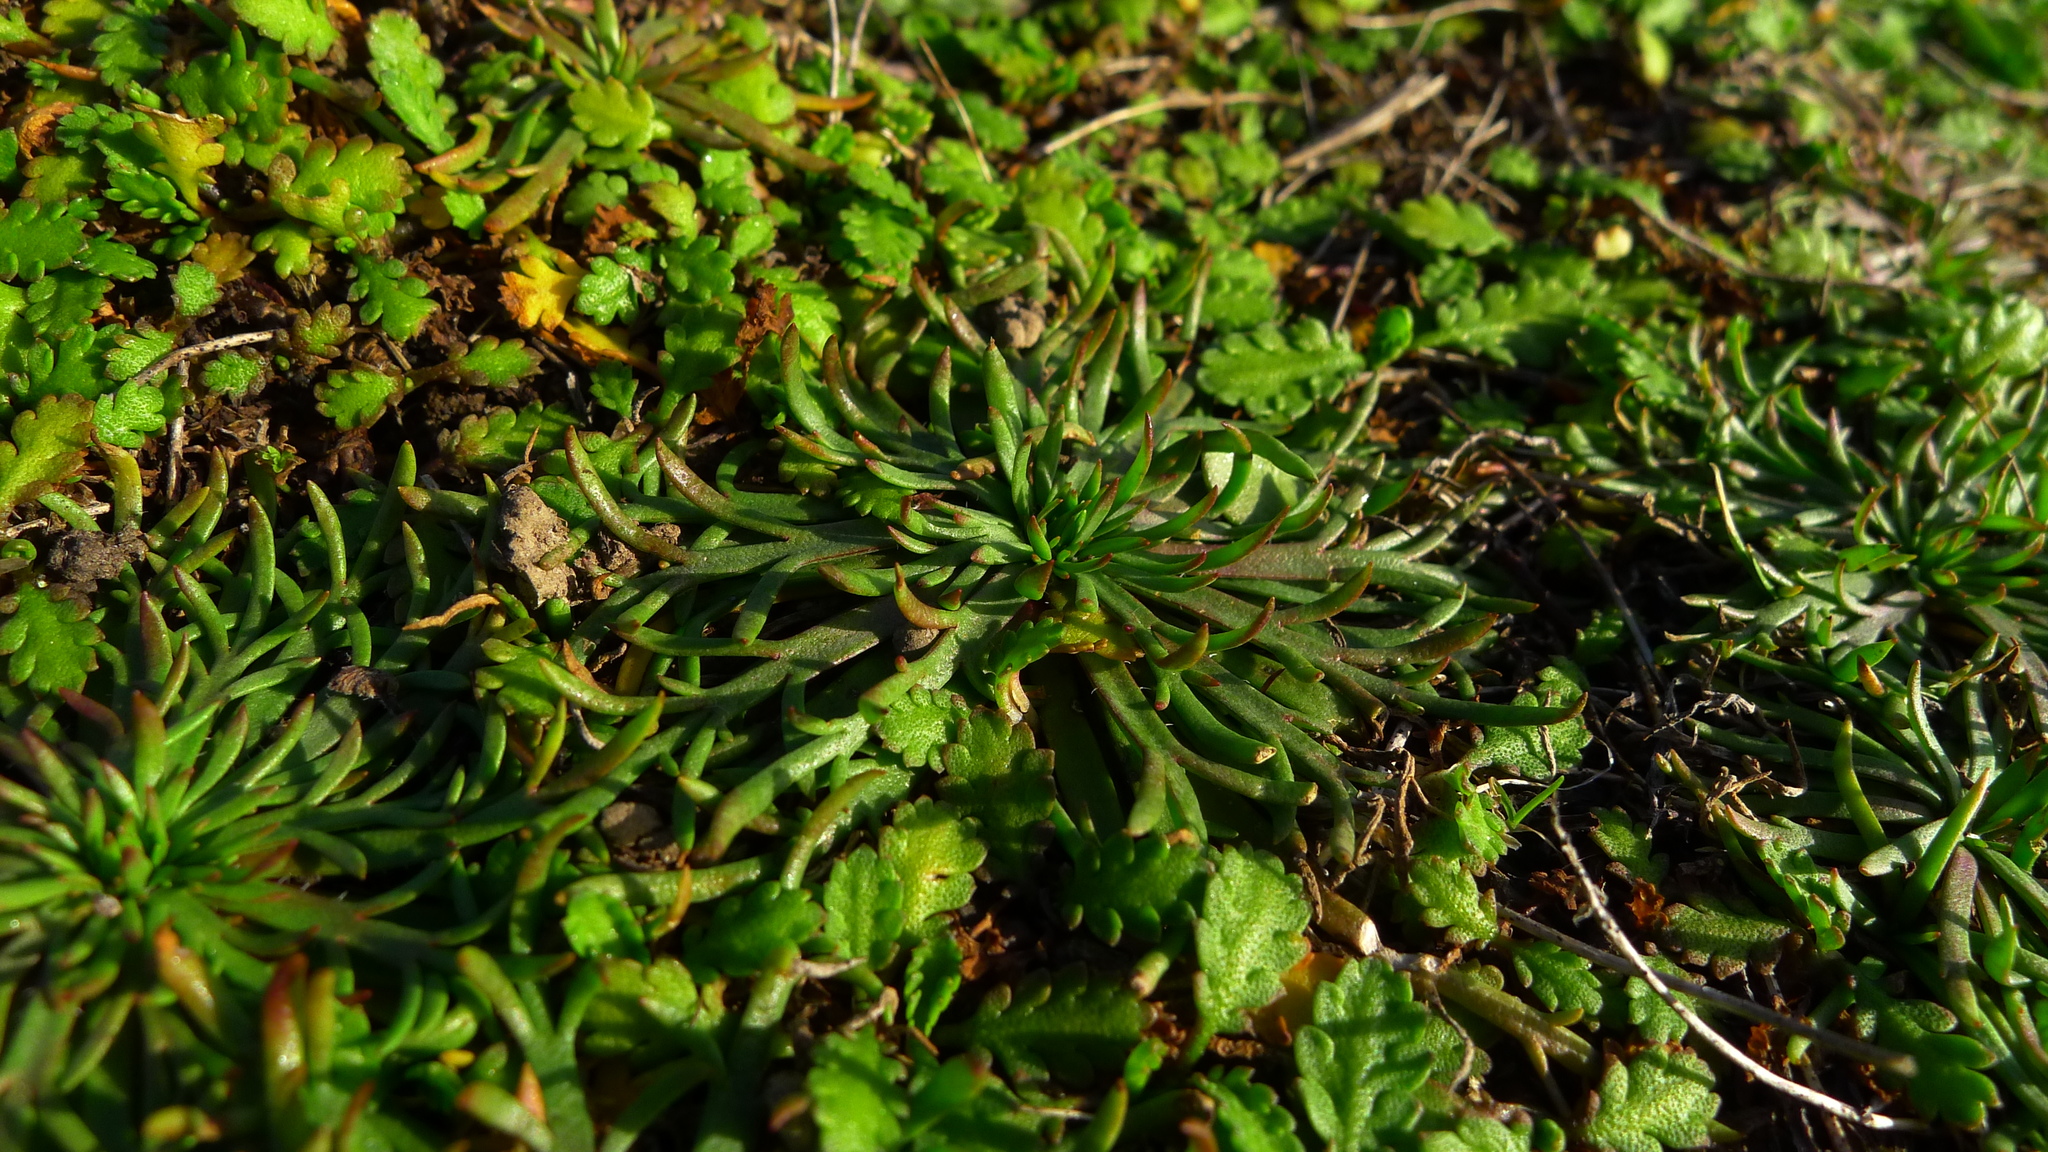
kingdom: Plantae
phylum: Tracheophyta
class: Magnoliopsida
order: Lamiales
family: Plantaginaceae
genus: Plantago
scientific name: Plantago coronopus
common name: Buck's-horn plantain
